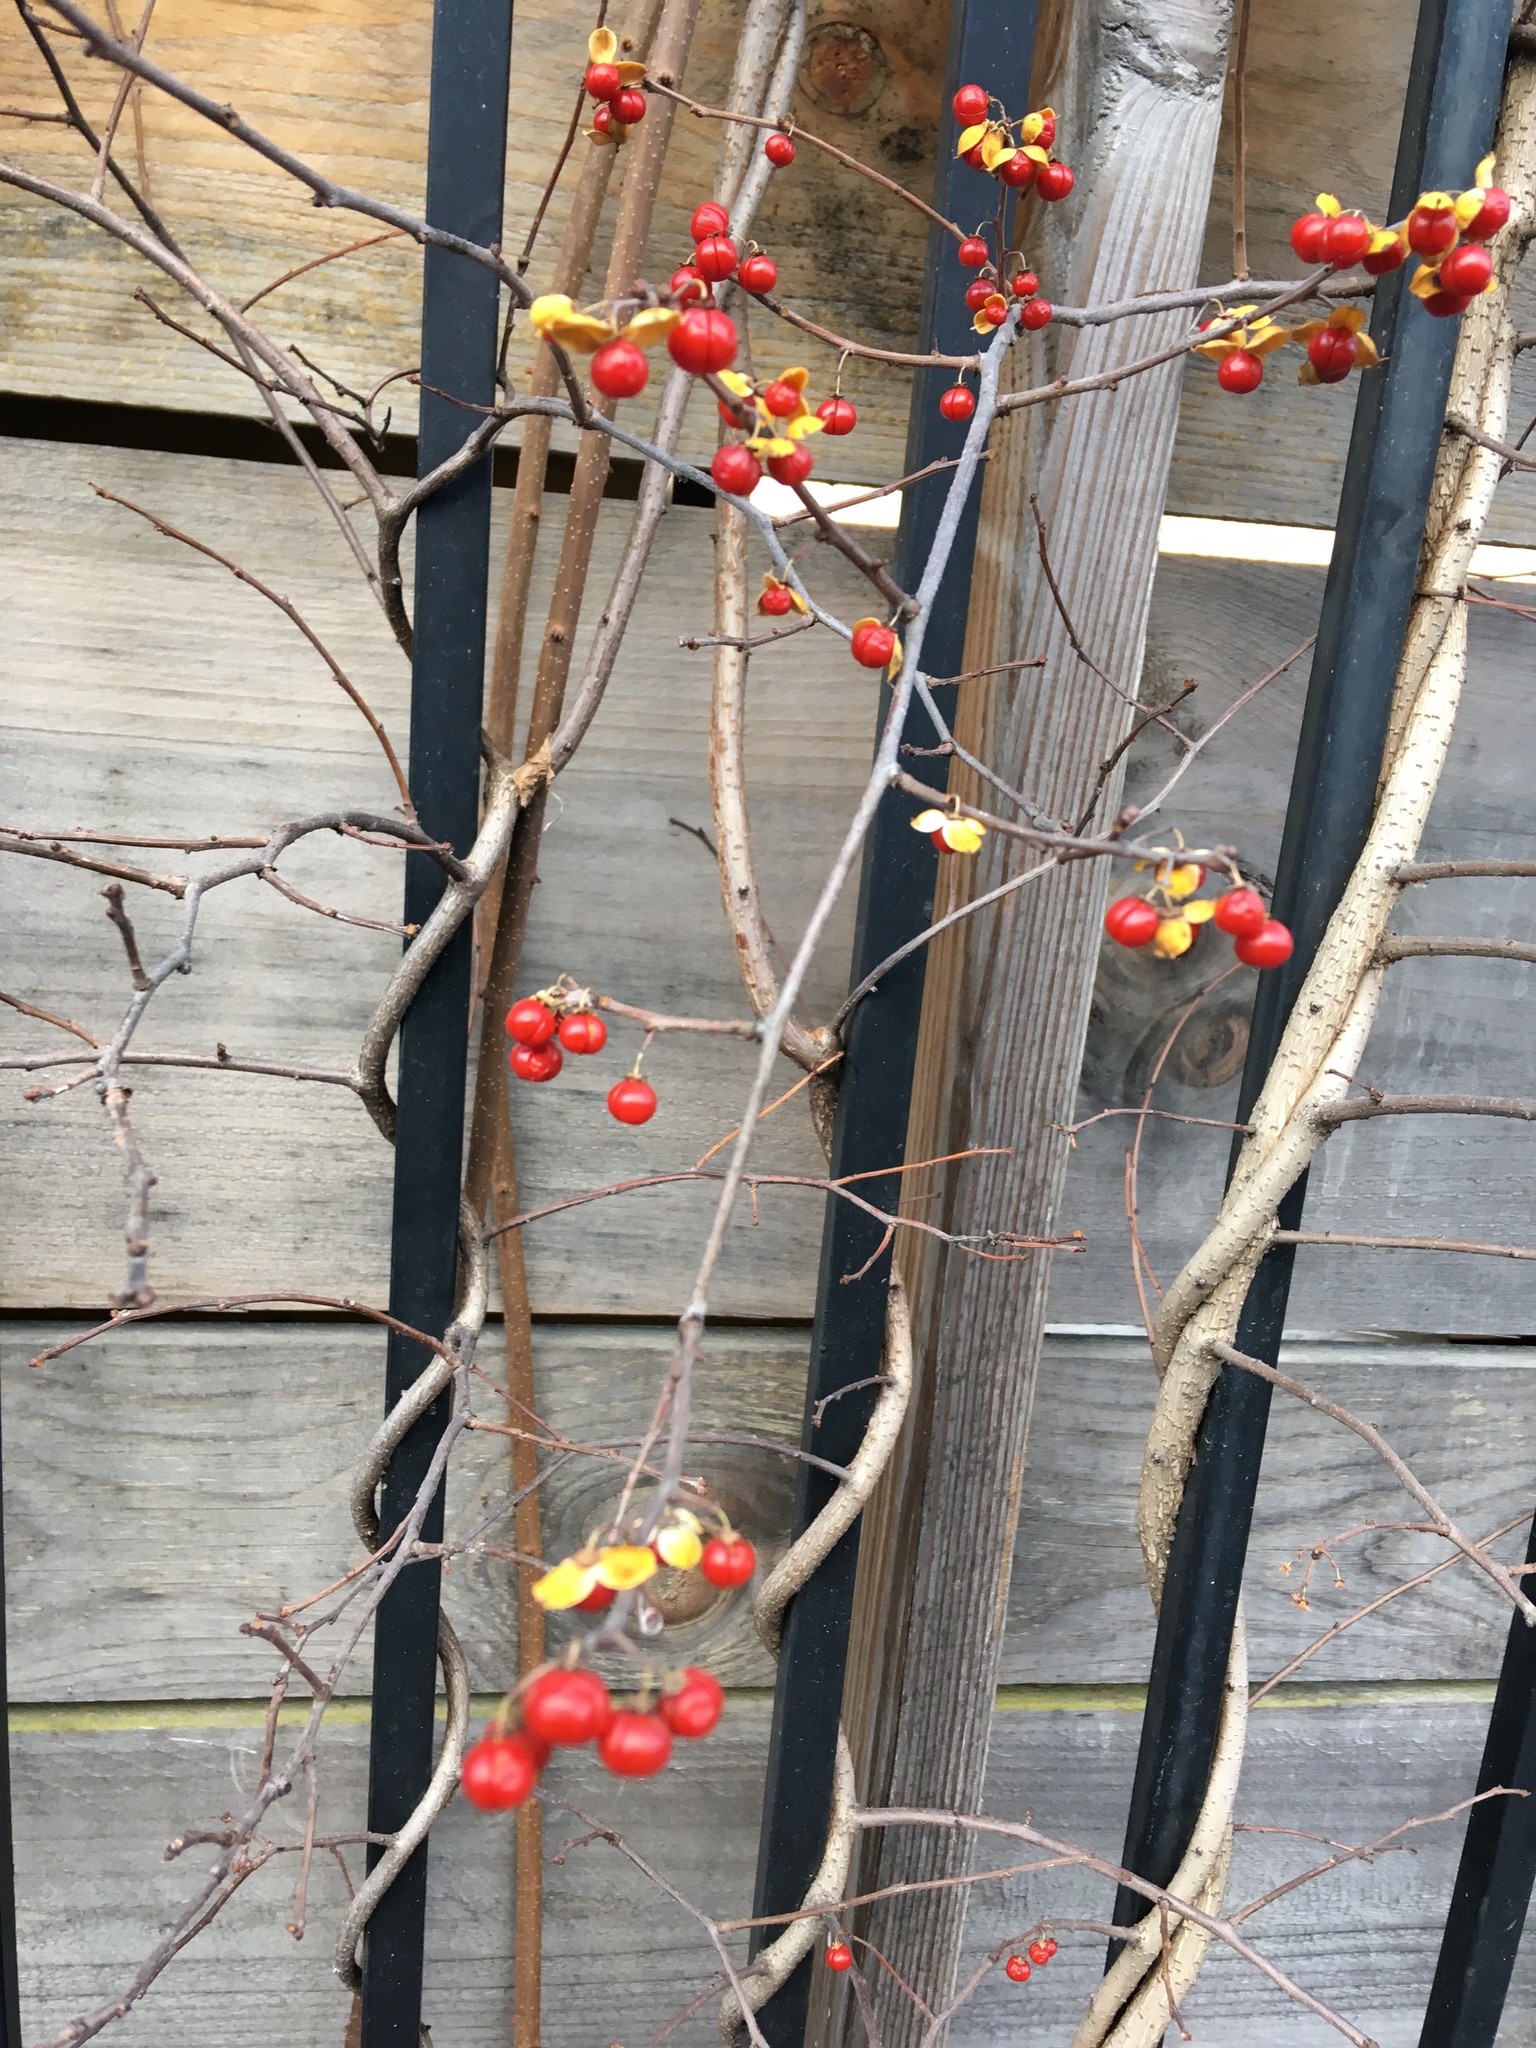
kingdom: Plantae
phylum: Tracheophyta
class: Magnoliopsida
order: Celastrales
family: Celastraceae
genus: Celastrus
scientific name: Celastrus orbiculatus
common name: Oriental bittersweet
